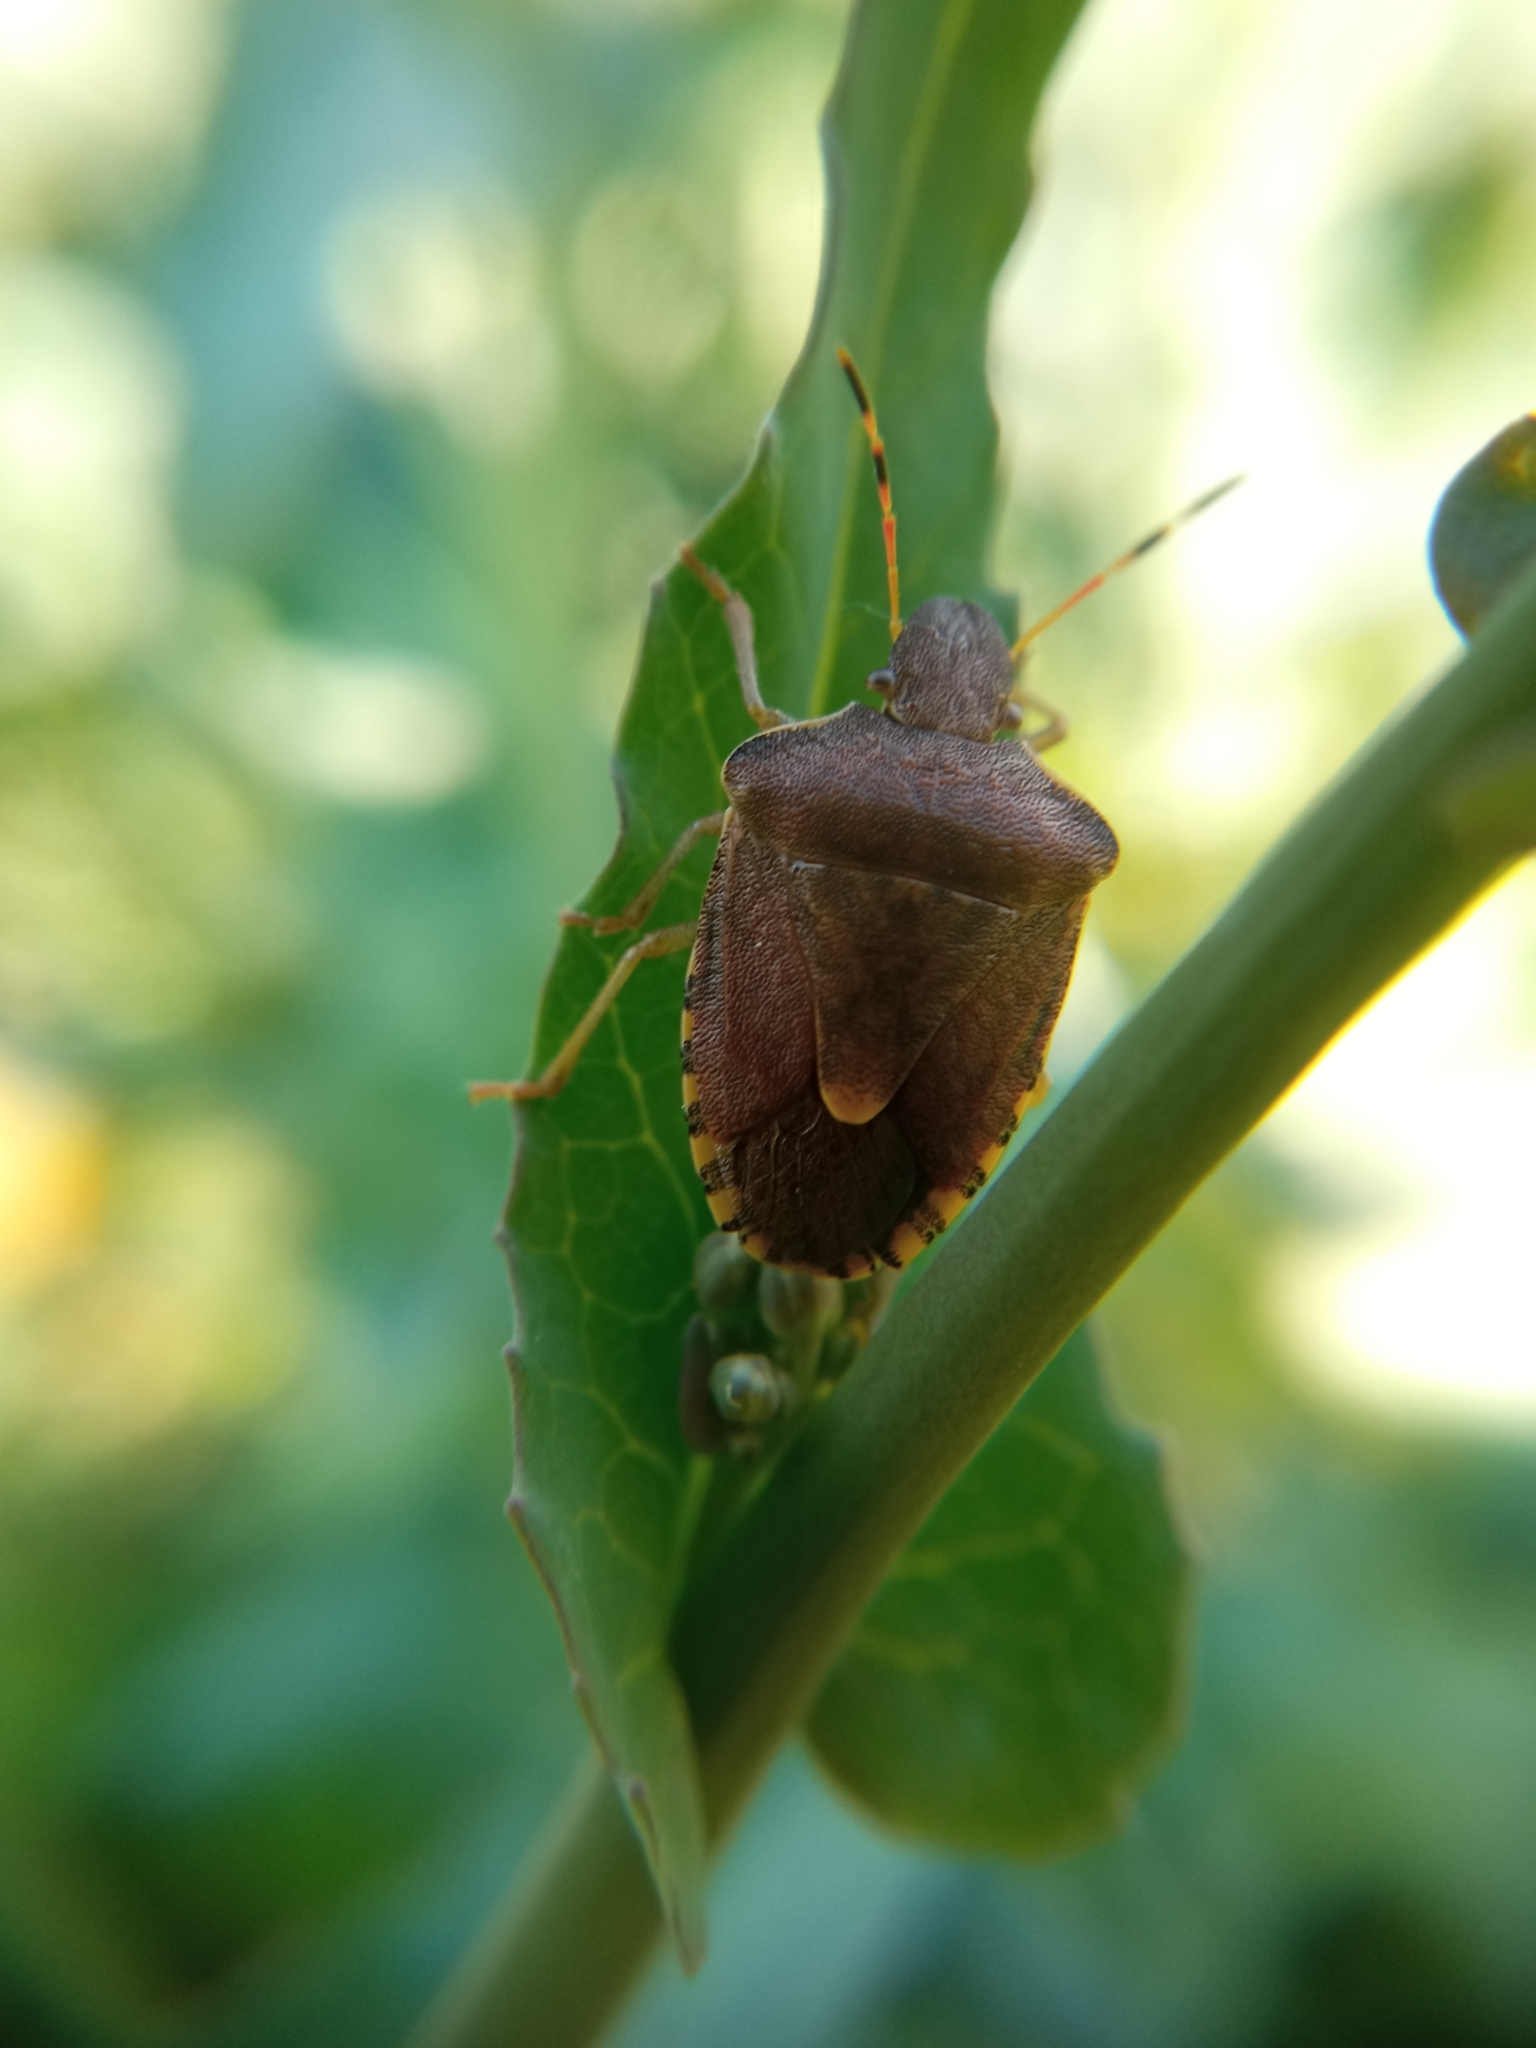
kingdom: Animalia
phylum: Arthropoda
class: Insecta
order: Hemiptera
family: Pentatomidae
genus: Holcostethus
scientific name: Holcostethus strictus
